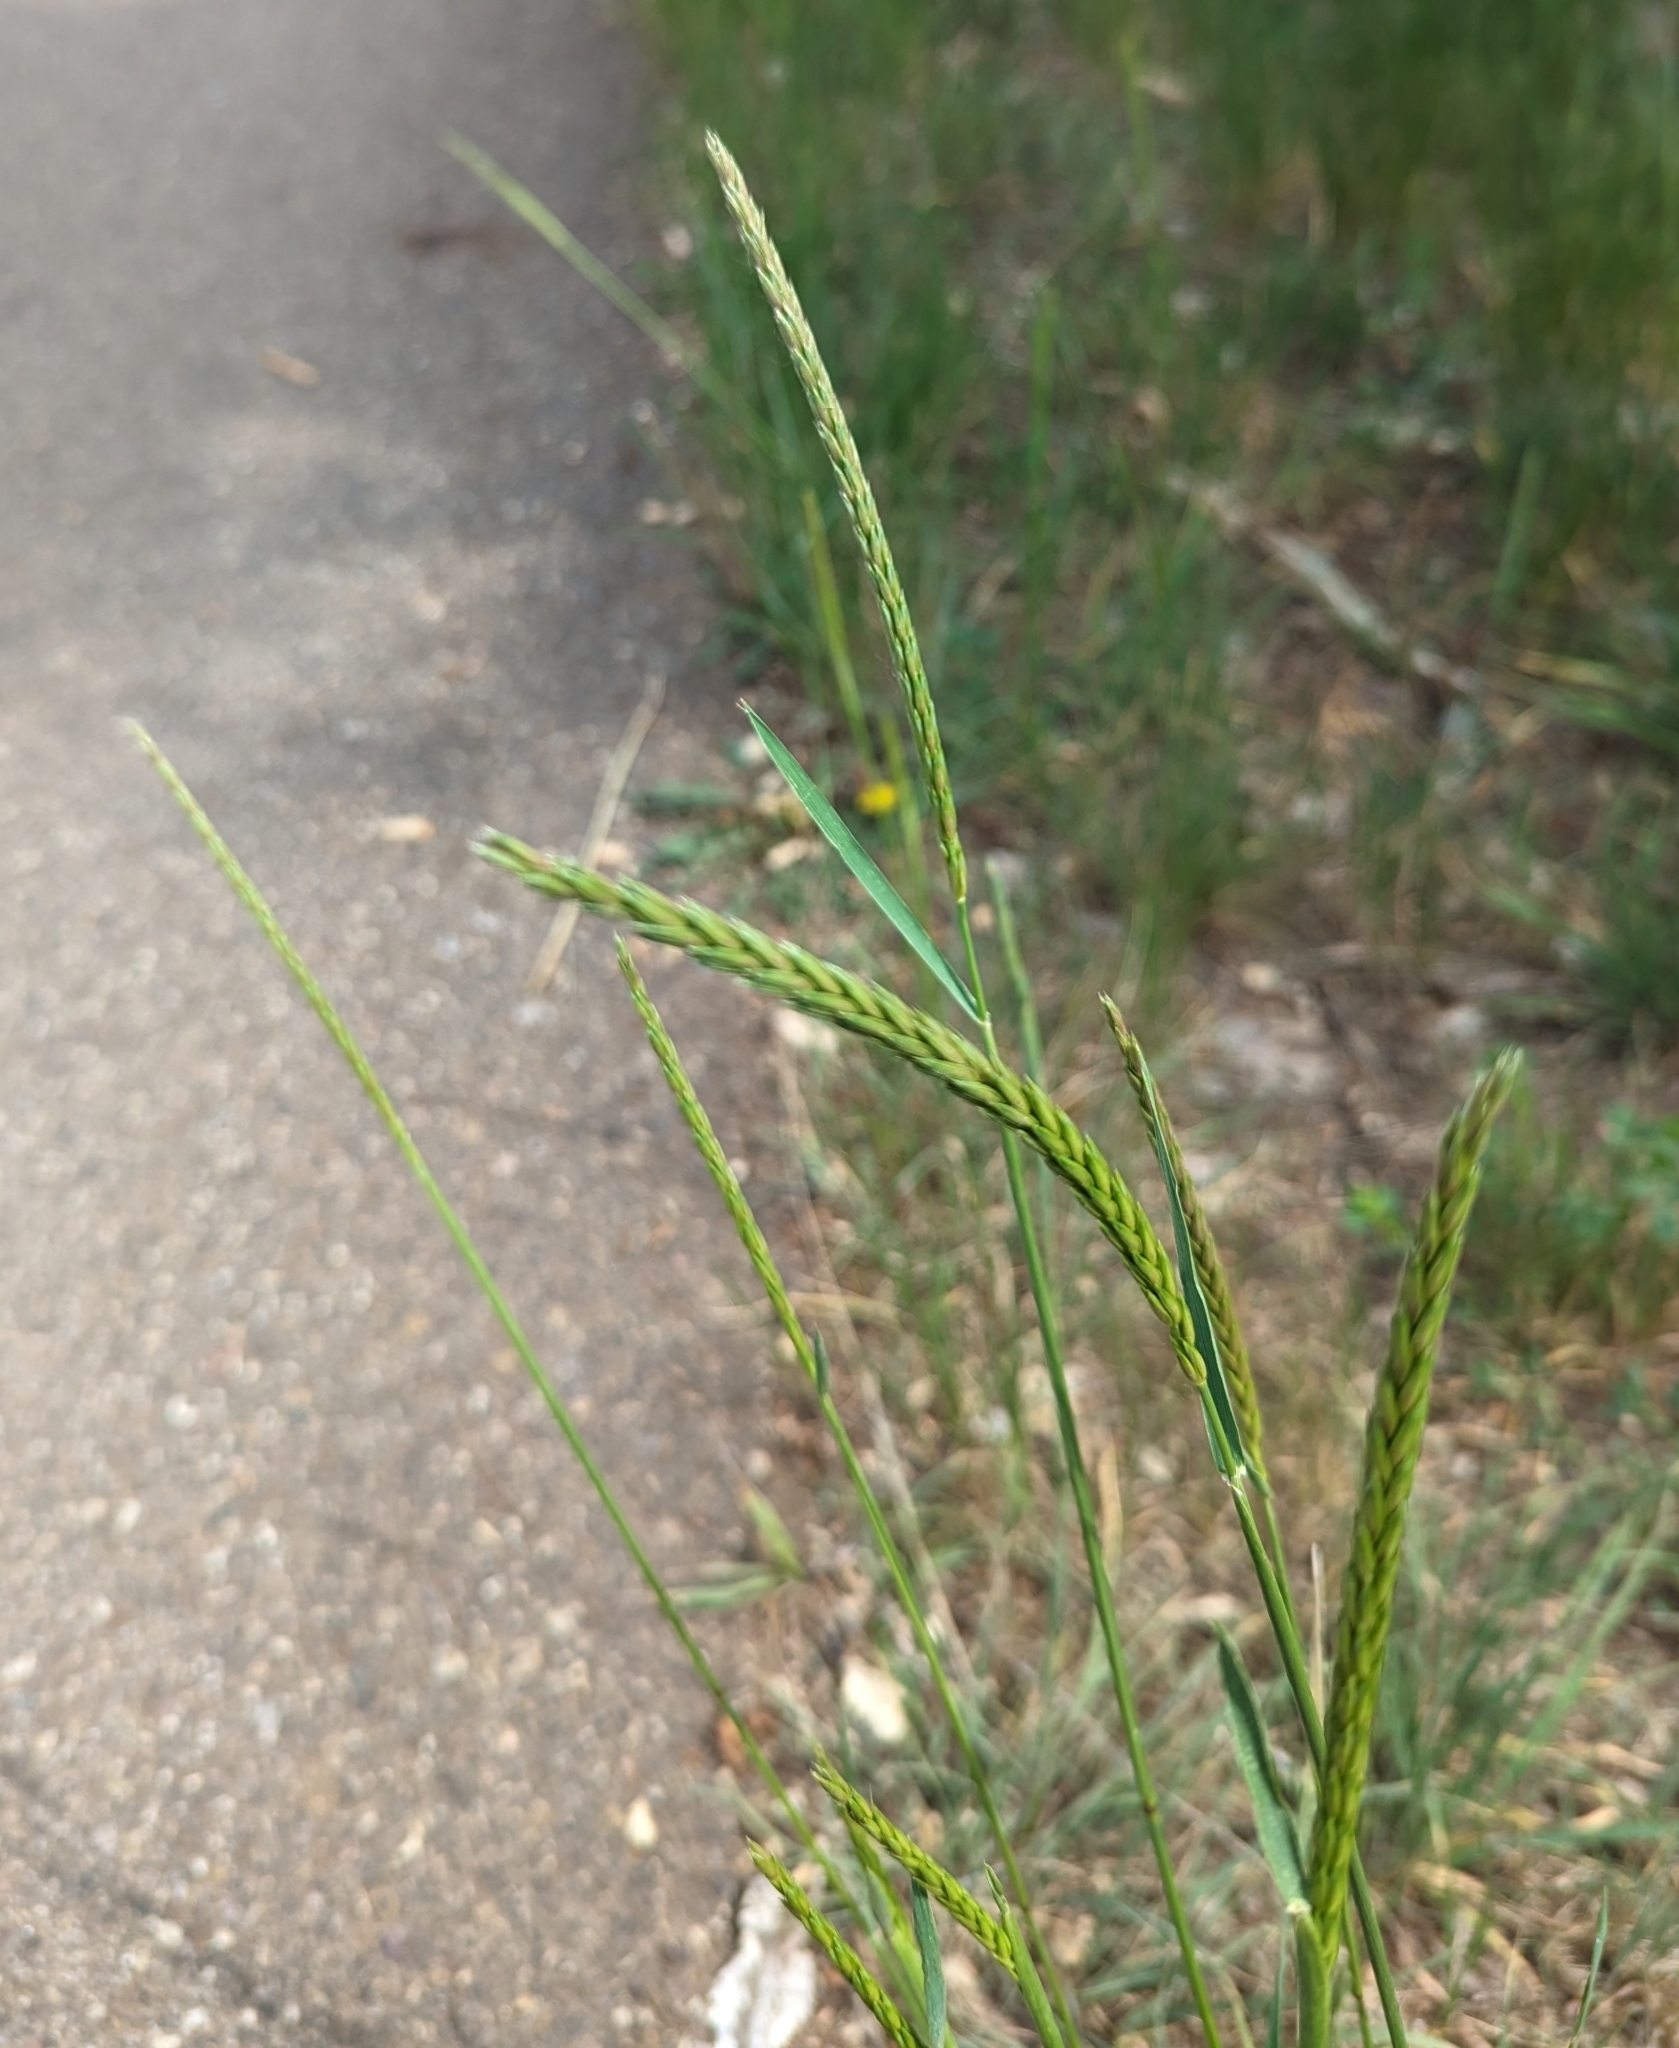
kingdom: Plantae
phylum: Tracheophyta
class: Liliopsida
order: Poales
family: Poaceae
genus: Psathyrostachys
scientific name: Psathyrostachys juncea
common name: Russian wildrye
